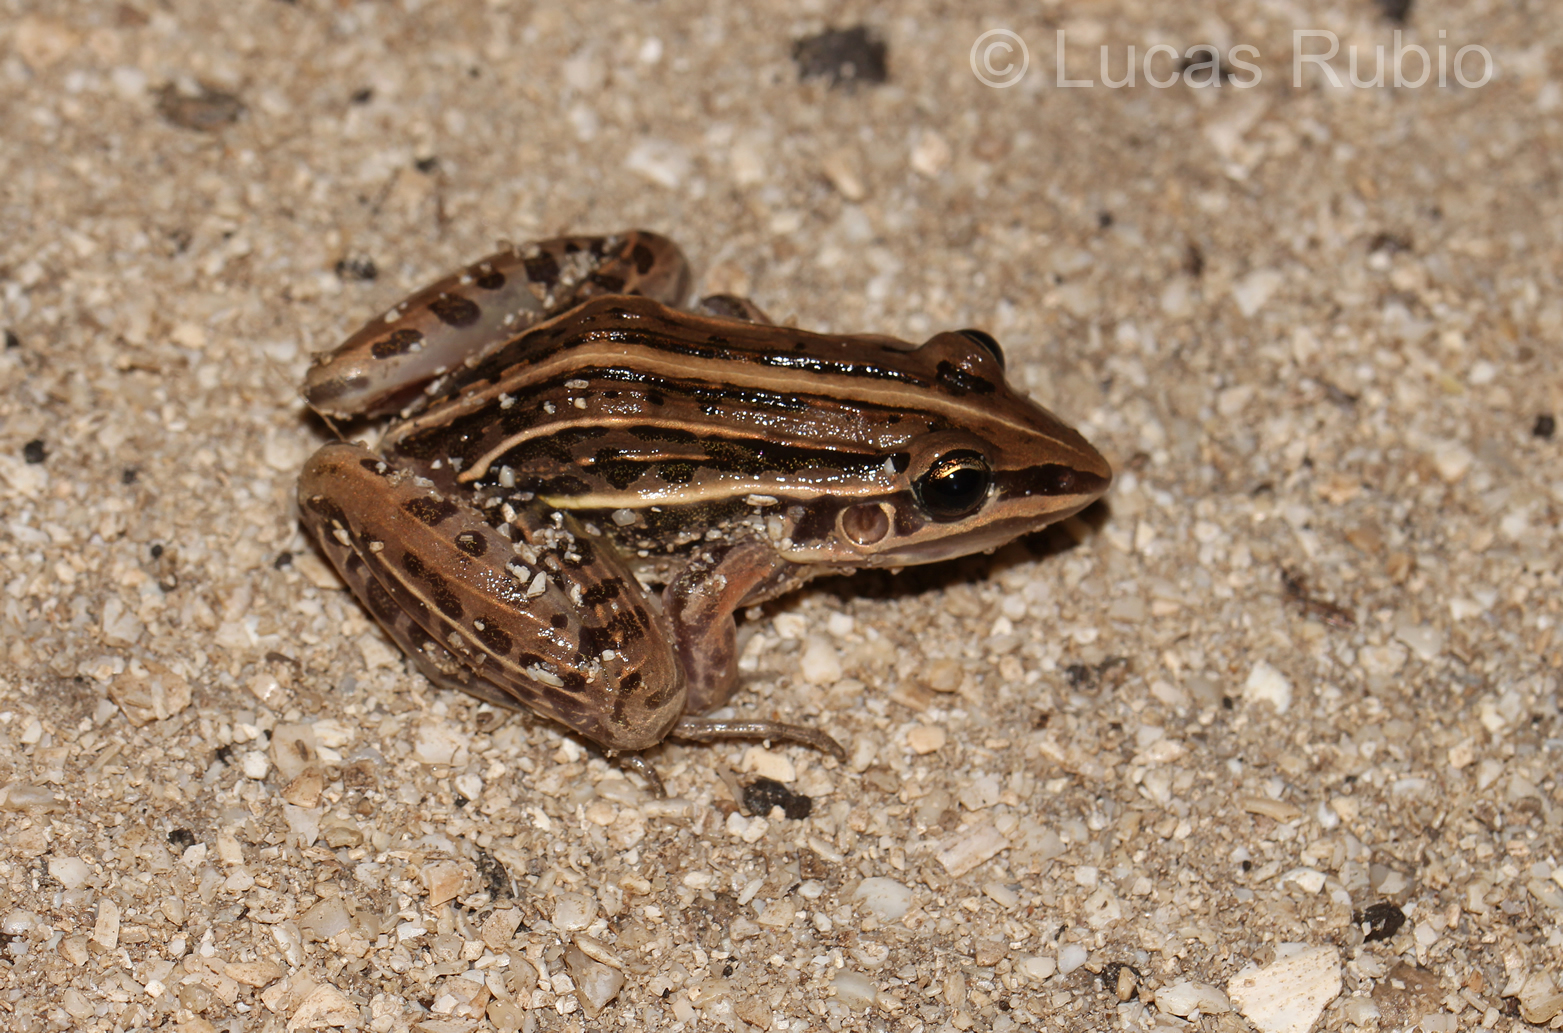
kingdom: Animalia
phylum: Chordata
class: Amphibia
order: Anura
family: Leptodactylidae
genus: Leptodactylus
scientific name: Leptodactylus gracilis
